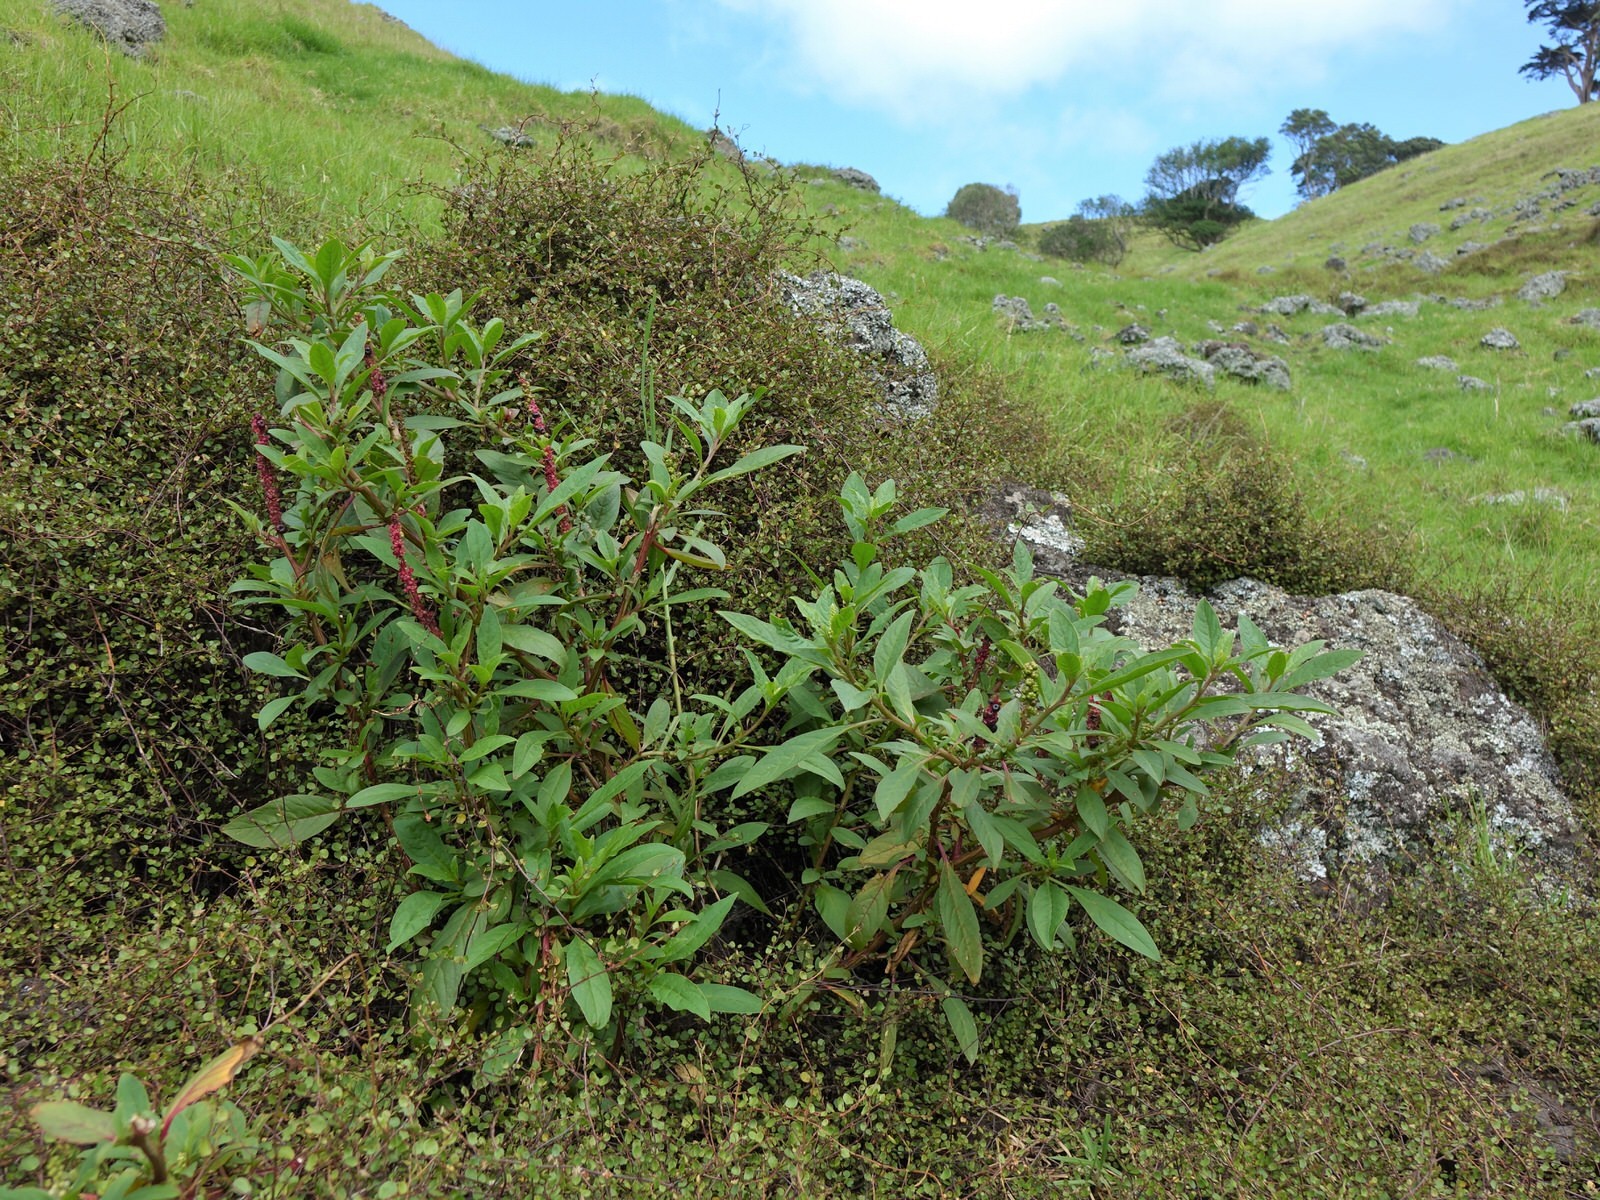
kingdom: Plantae
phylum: Tracheophyta
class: Magnoliopsida
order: Caryophyllales
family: Phytolaccaceae
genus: Phytolacca
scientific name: Phytolacca icosandra
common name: Button pokeweed
